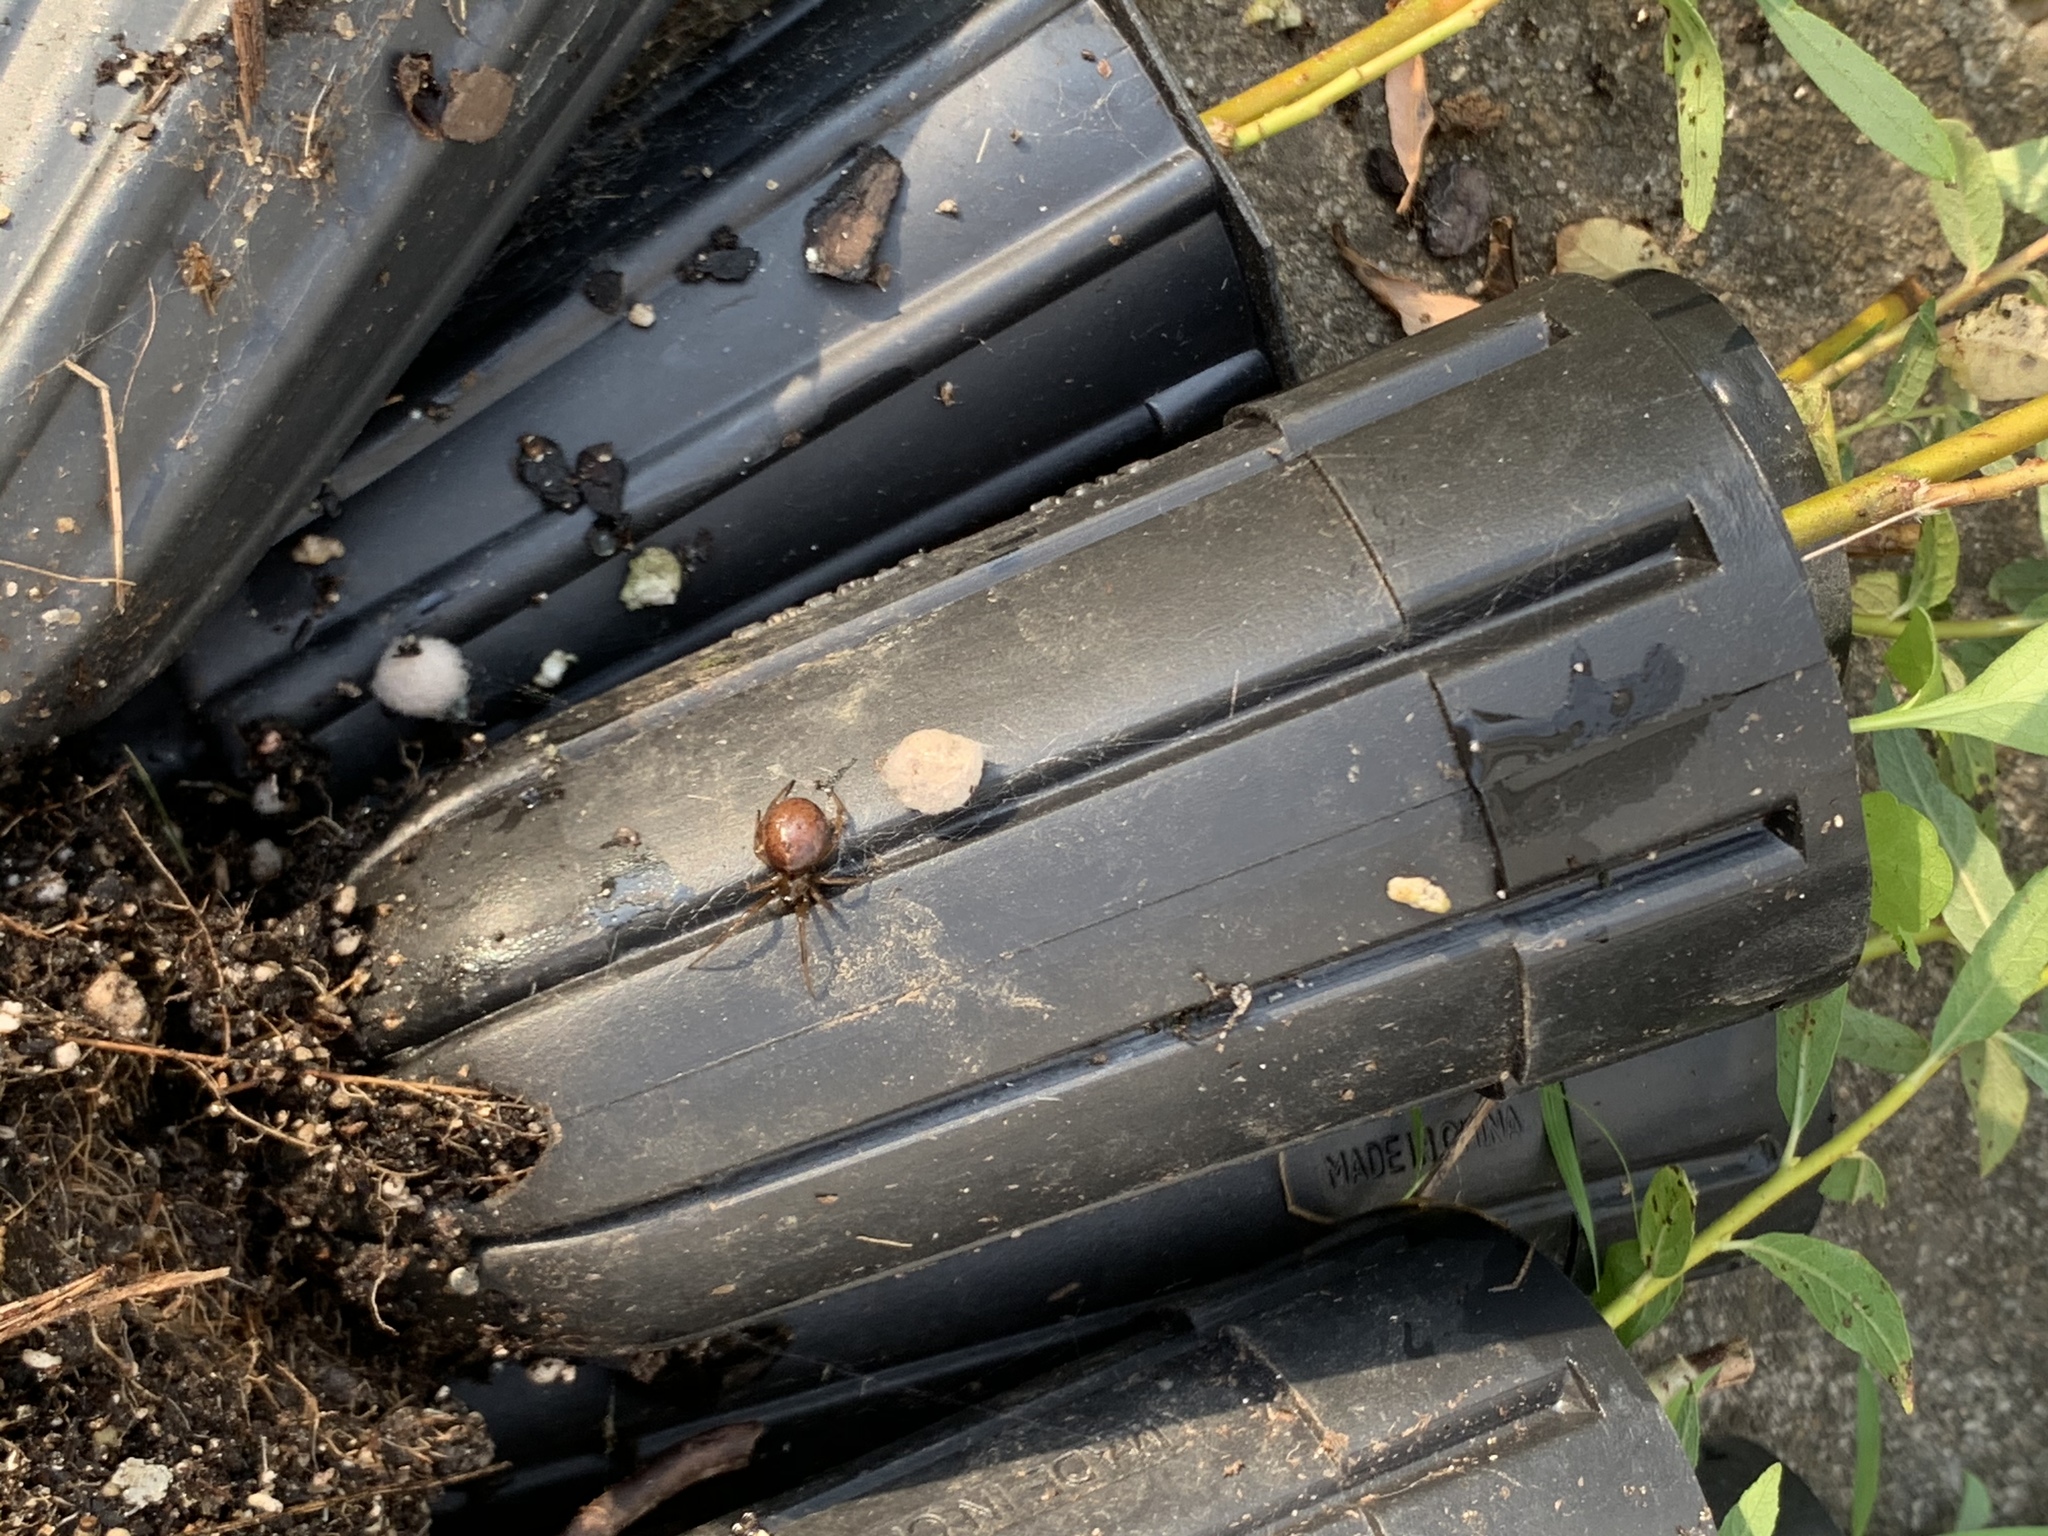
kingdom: Animalia
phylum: Arthropoda
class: Arachnida
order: Araneae
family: Theridiidae
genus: Steatoda
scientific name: Steatoda borealis
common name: Boreal combfoot
